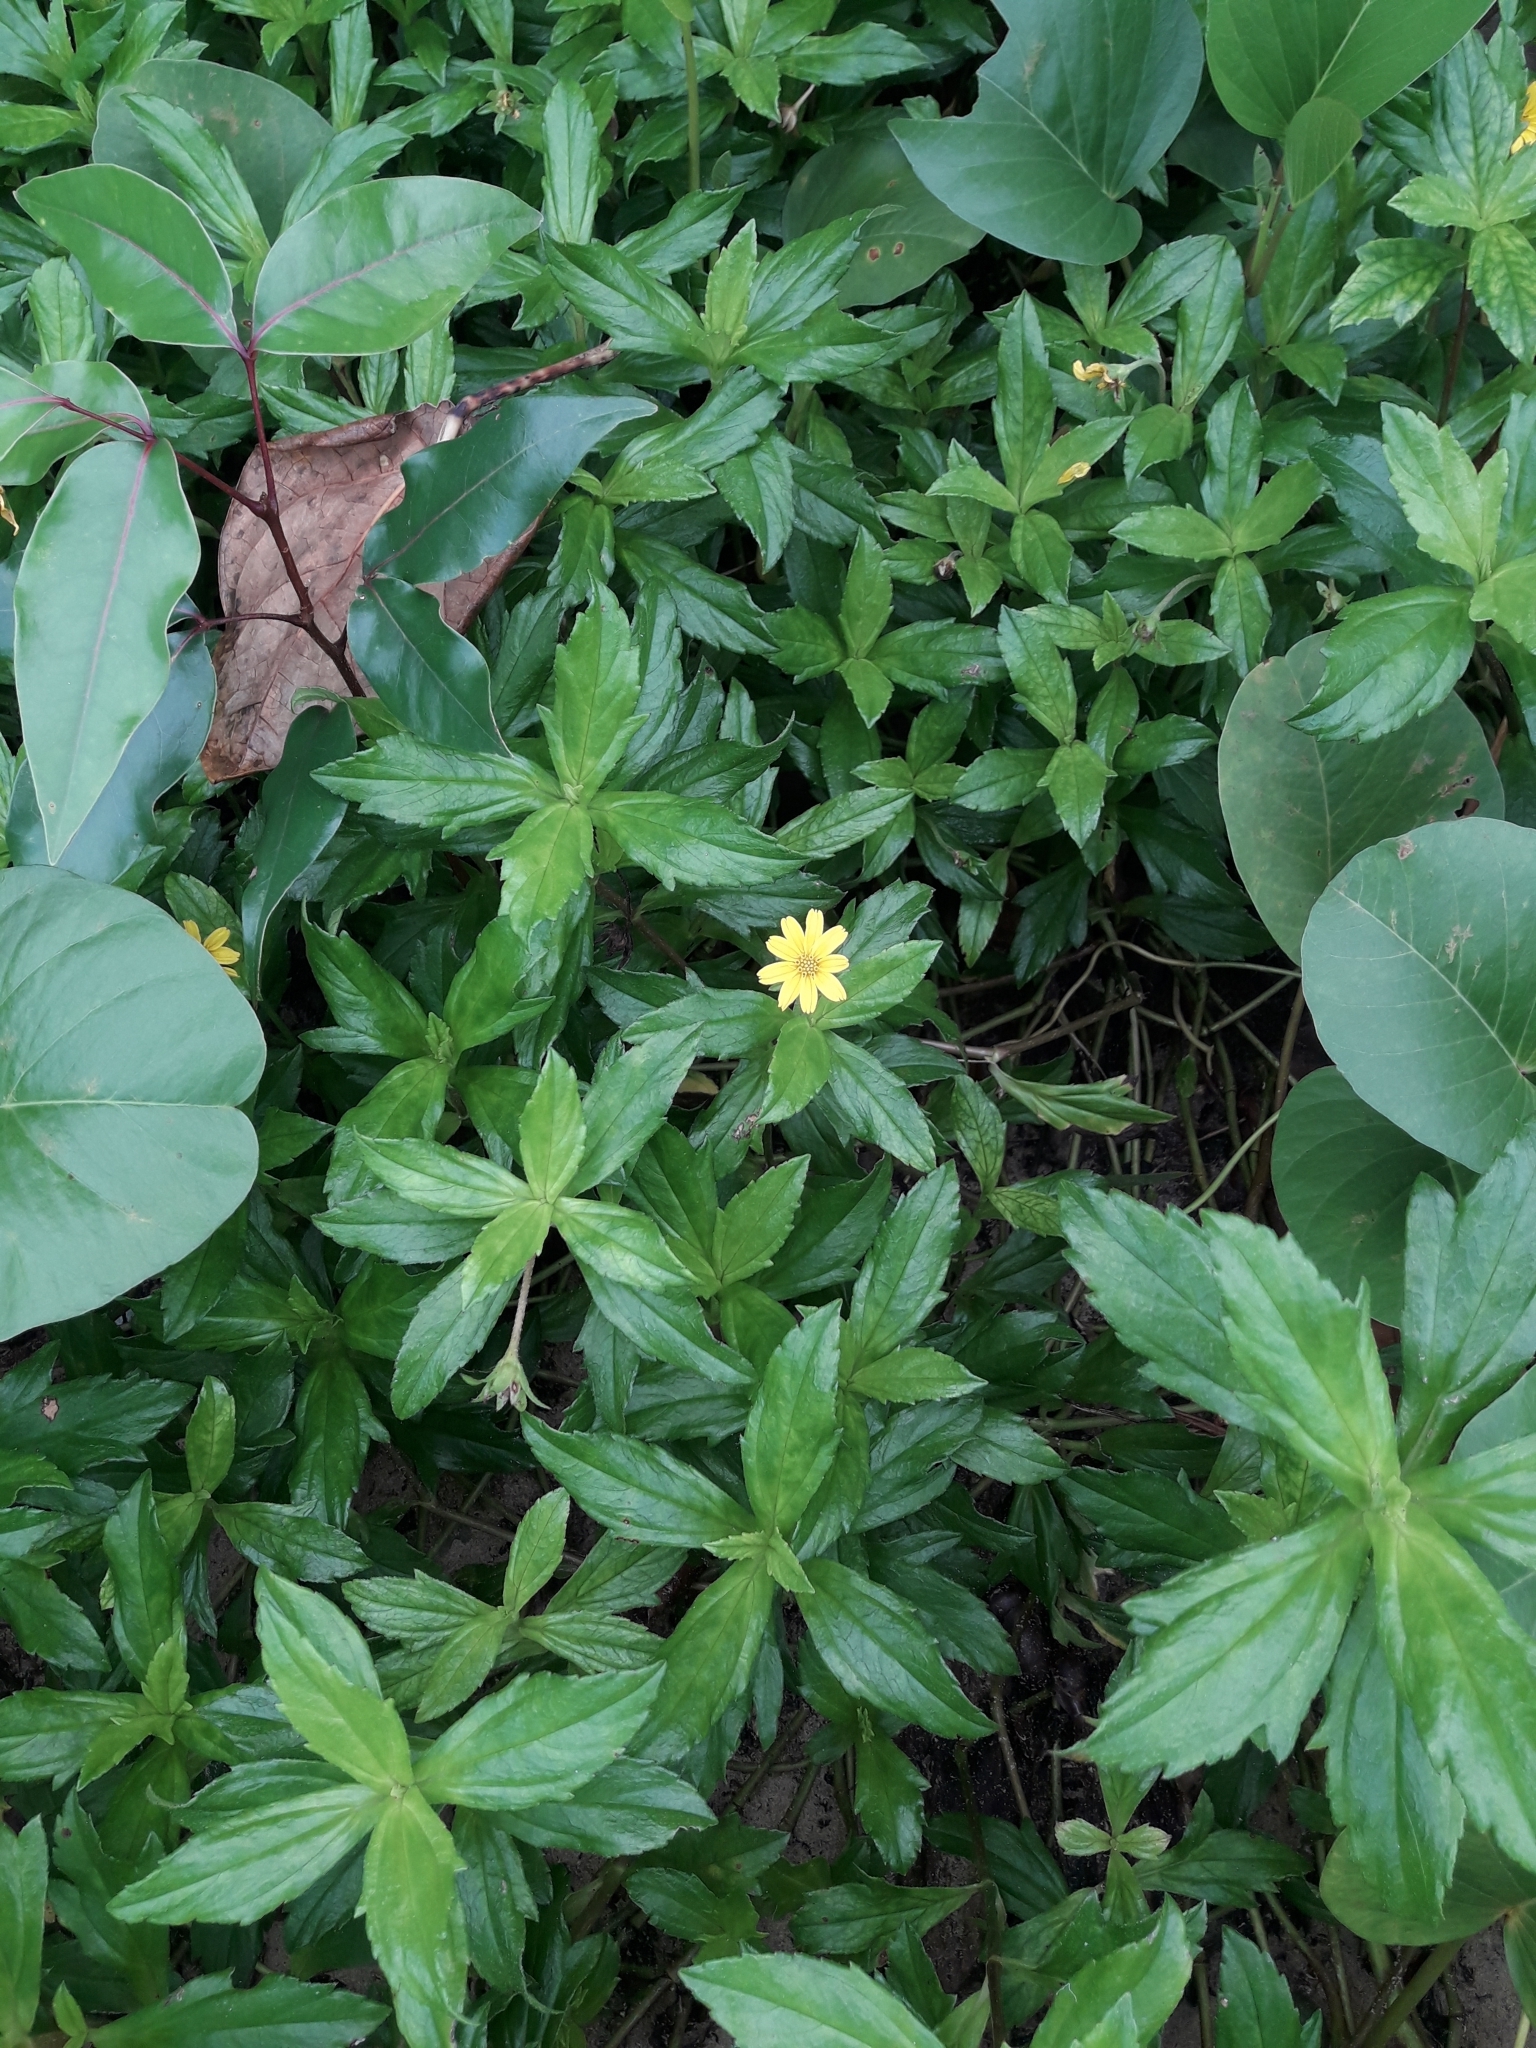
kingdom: Plantae
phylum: Tracheophyta
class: Magnoliopsida
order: Asterales
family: Asteraceae
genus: Sphagneticola
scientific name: Sphagneticola trilobata
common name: Bay biscayne creeping-oxeye
